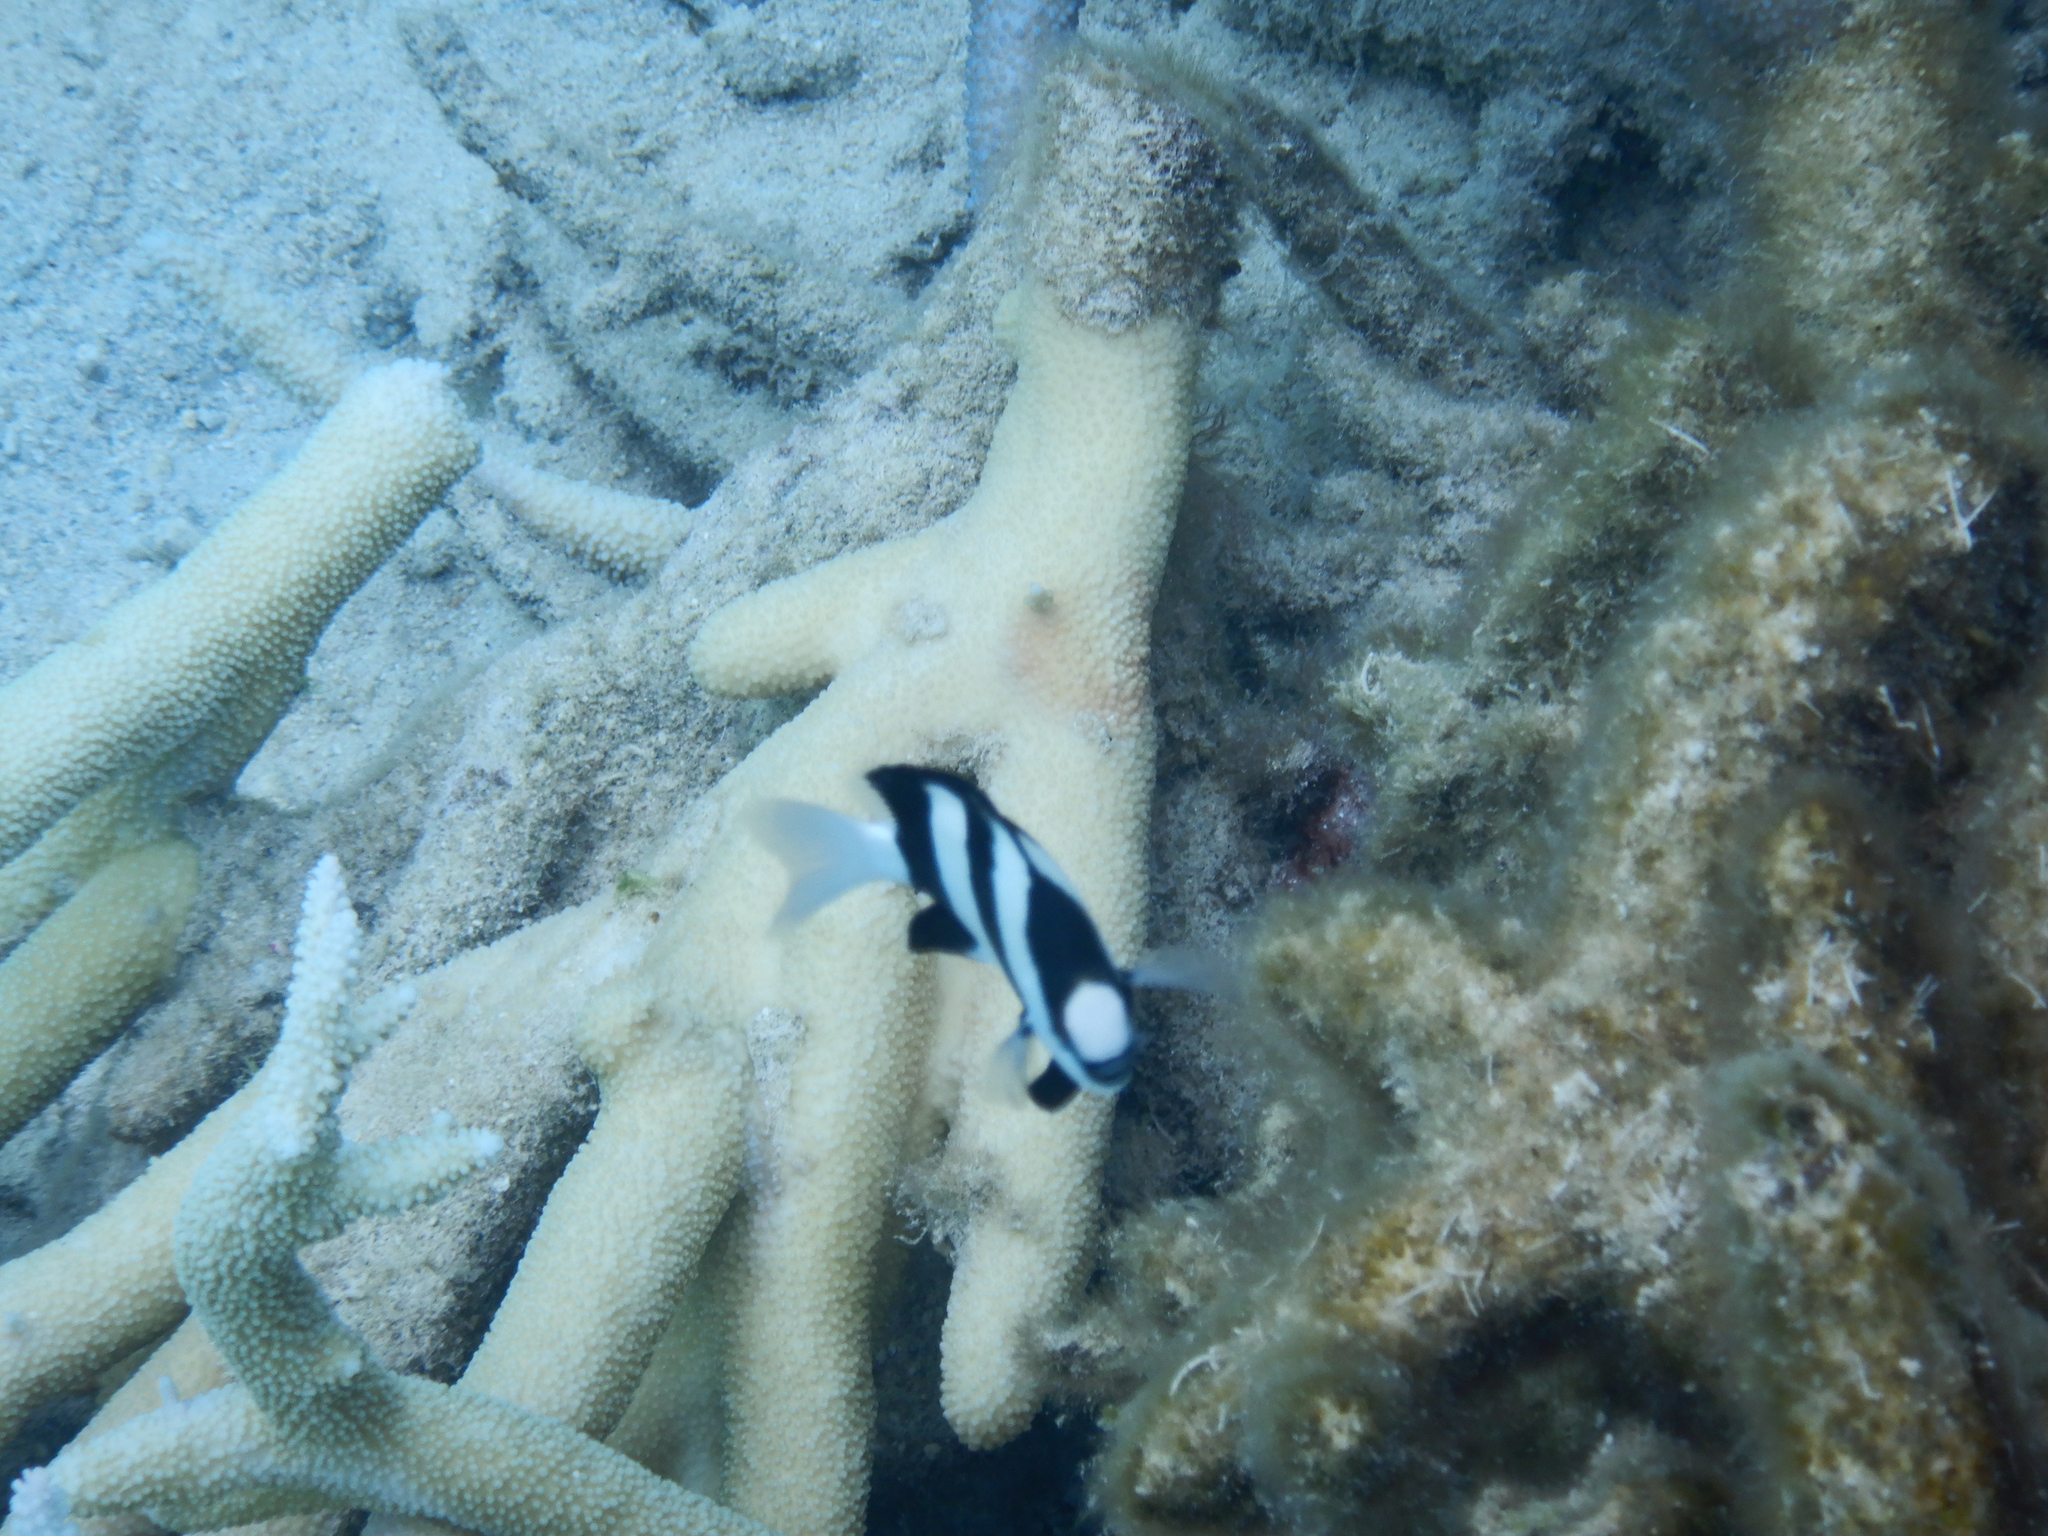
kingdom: Animalia
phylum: Chordata
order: Perciformes
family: Pomacentridae
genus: Dascyllus
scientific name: Dascyllus aruanus
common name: Humbug dascyllus
